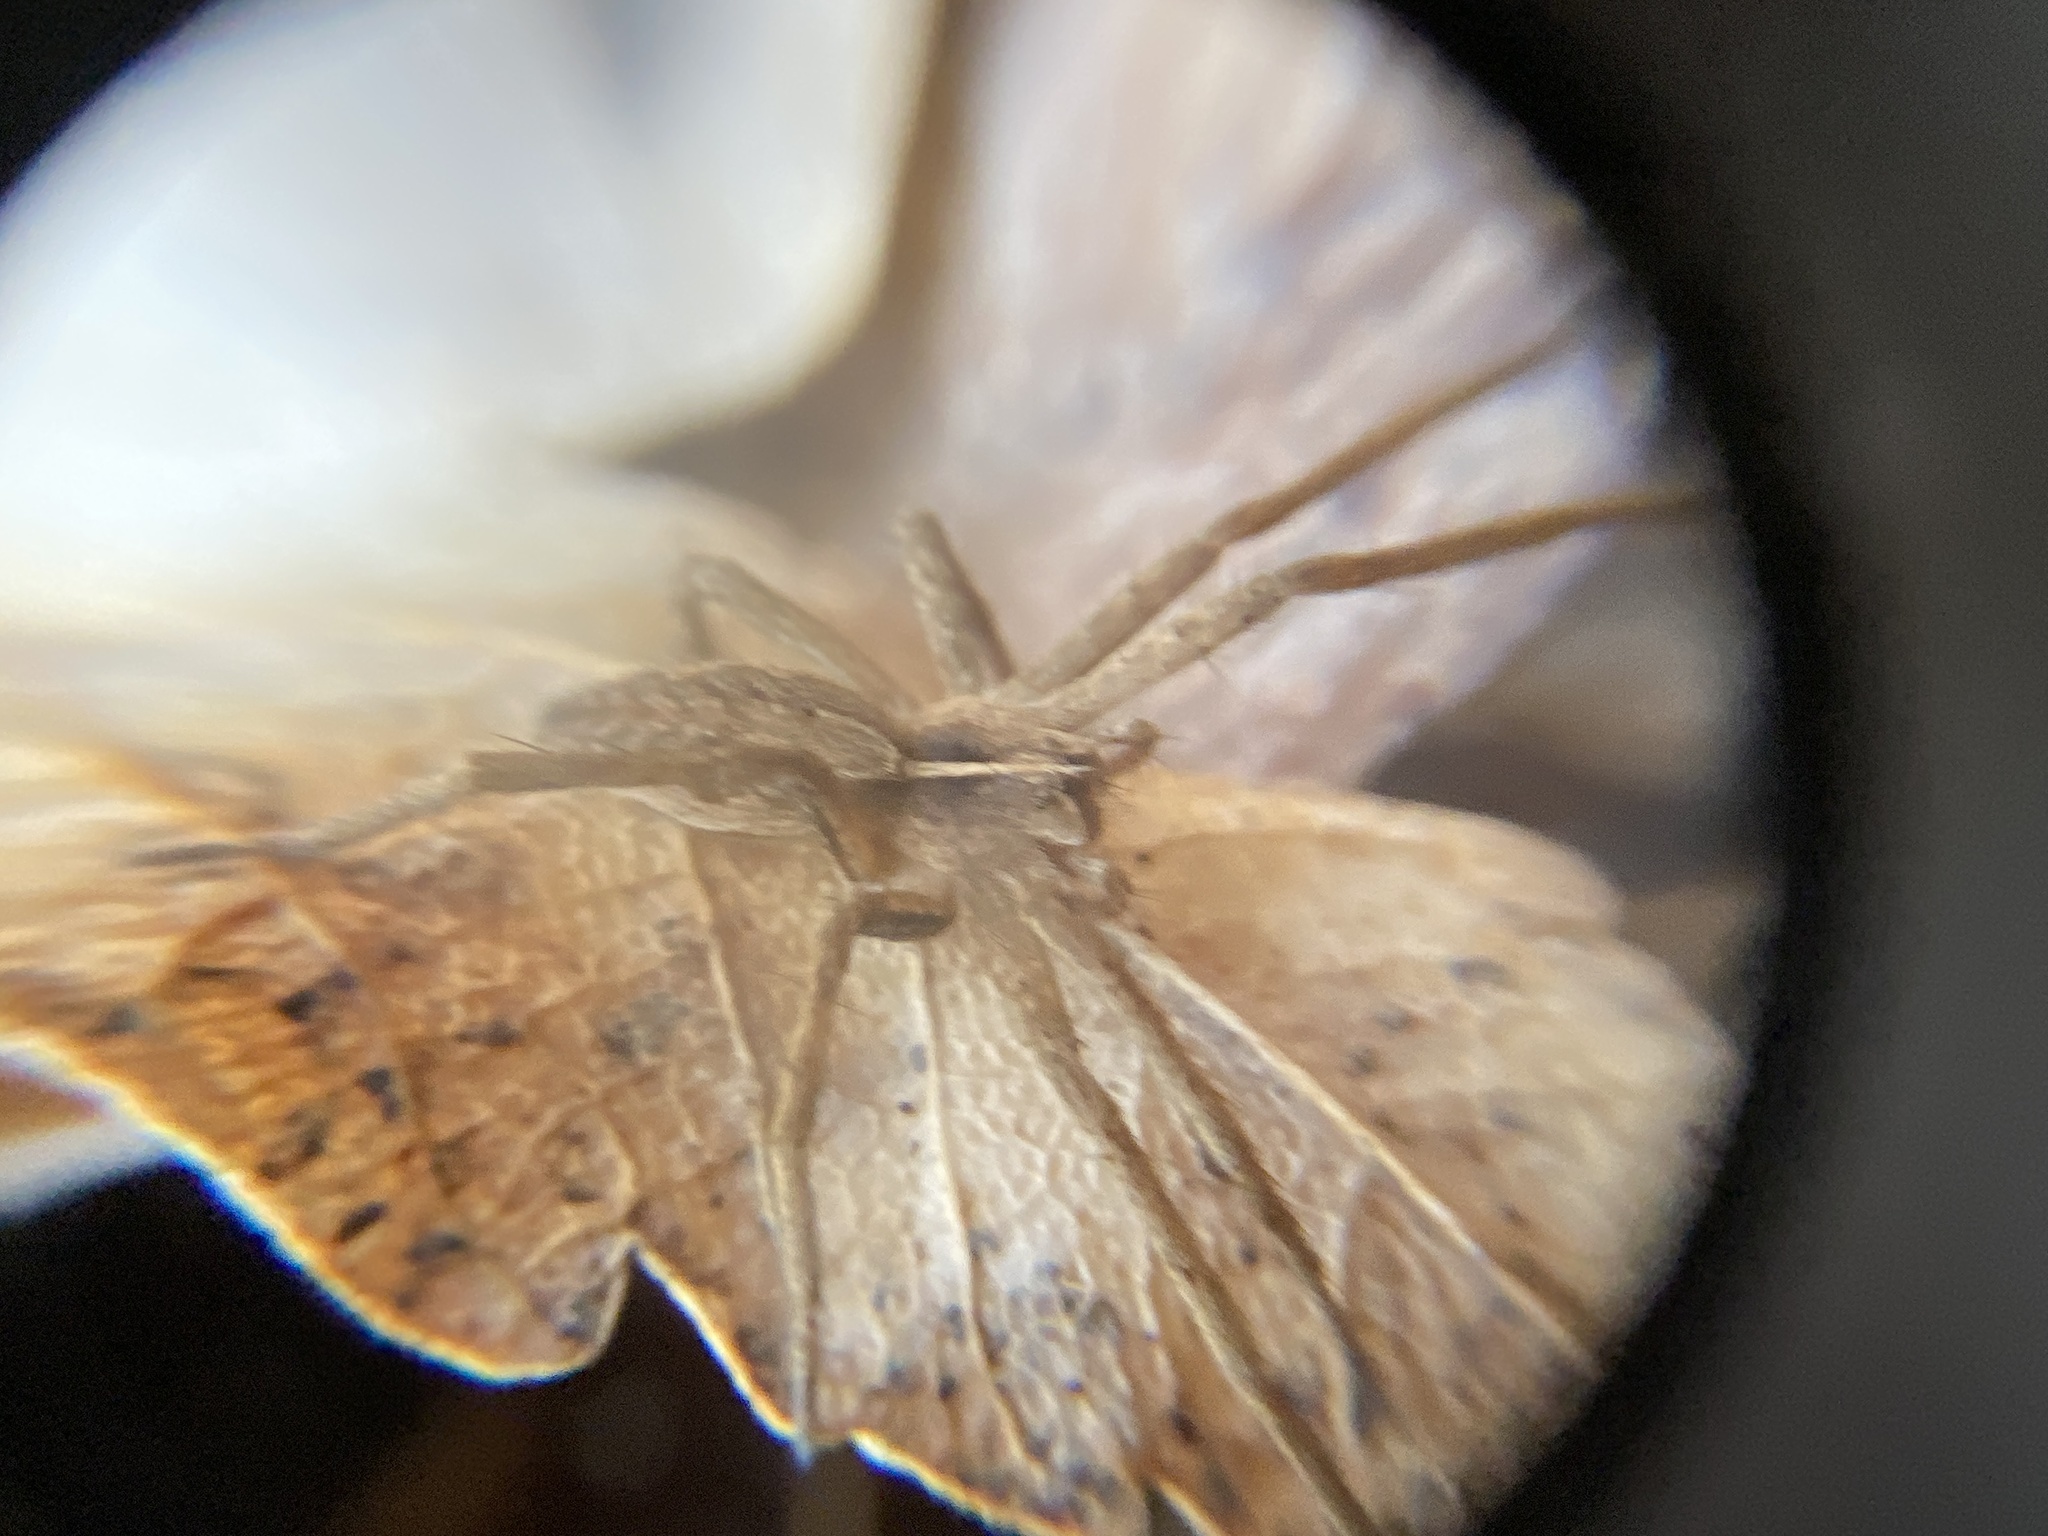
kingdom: Animalia
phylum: Arthropoda
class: Arachnida
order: Araneae
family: Pisauridae
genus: Pisaura
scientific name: Pisaura mirabilis
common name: Tent spider
